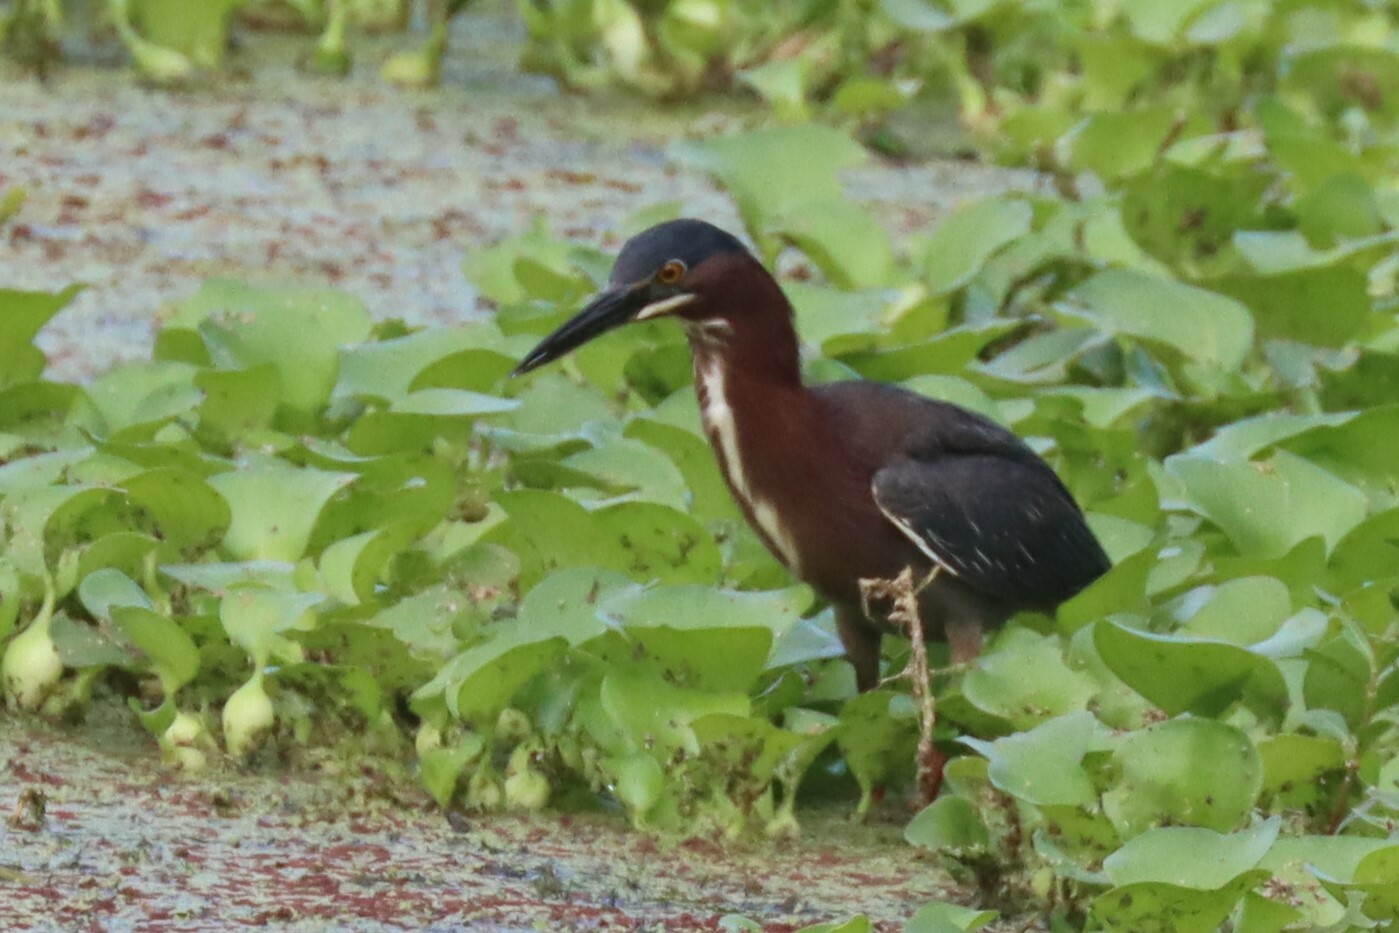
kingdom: Animalia
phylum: Chordata
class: Aves
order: Pelecaniformes
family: Ardeidae
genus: Butorides
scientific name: Butorides virescens
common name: Green heron
